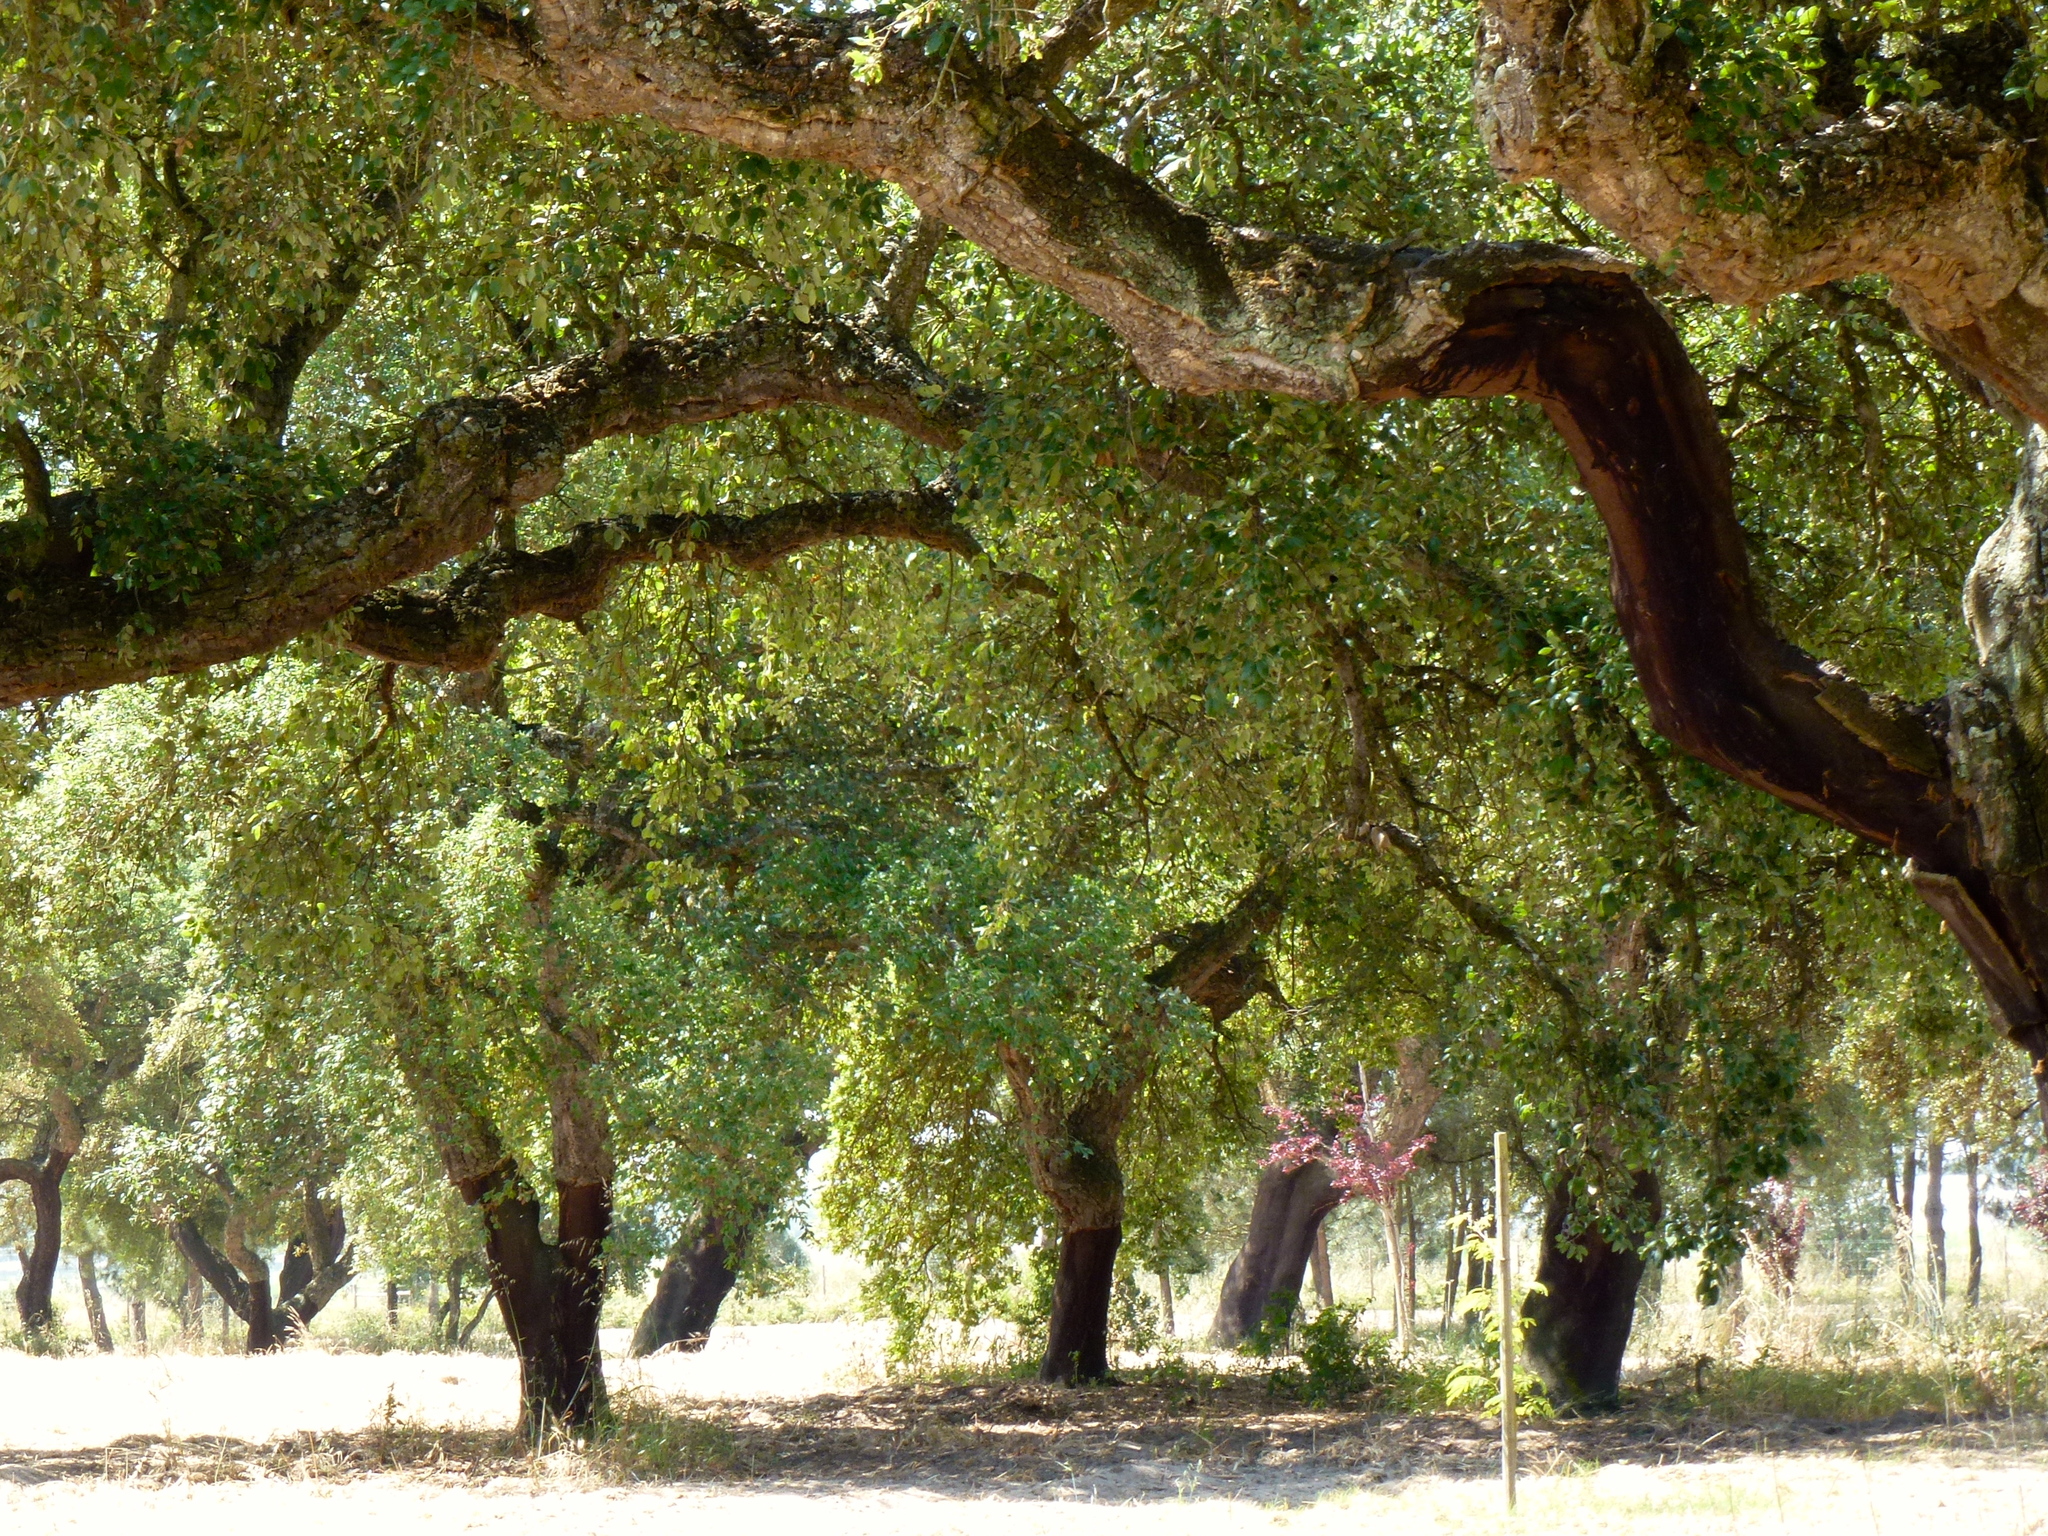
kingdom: Plantae
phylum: Tracheophyta
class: Magnoliopsida
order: Fagales
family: Fagaceae
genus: Quercus
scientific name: Quercus suber
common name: Cork oak
